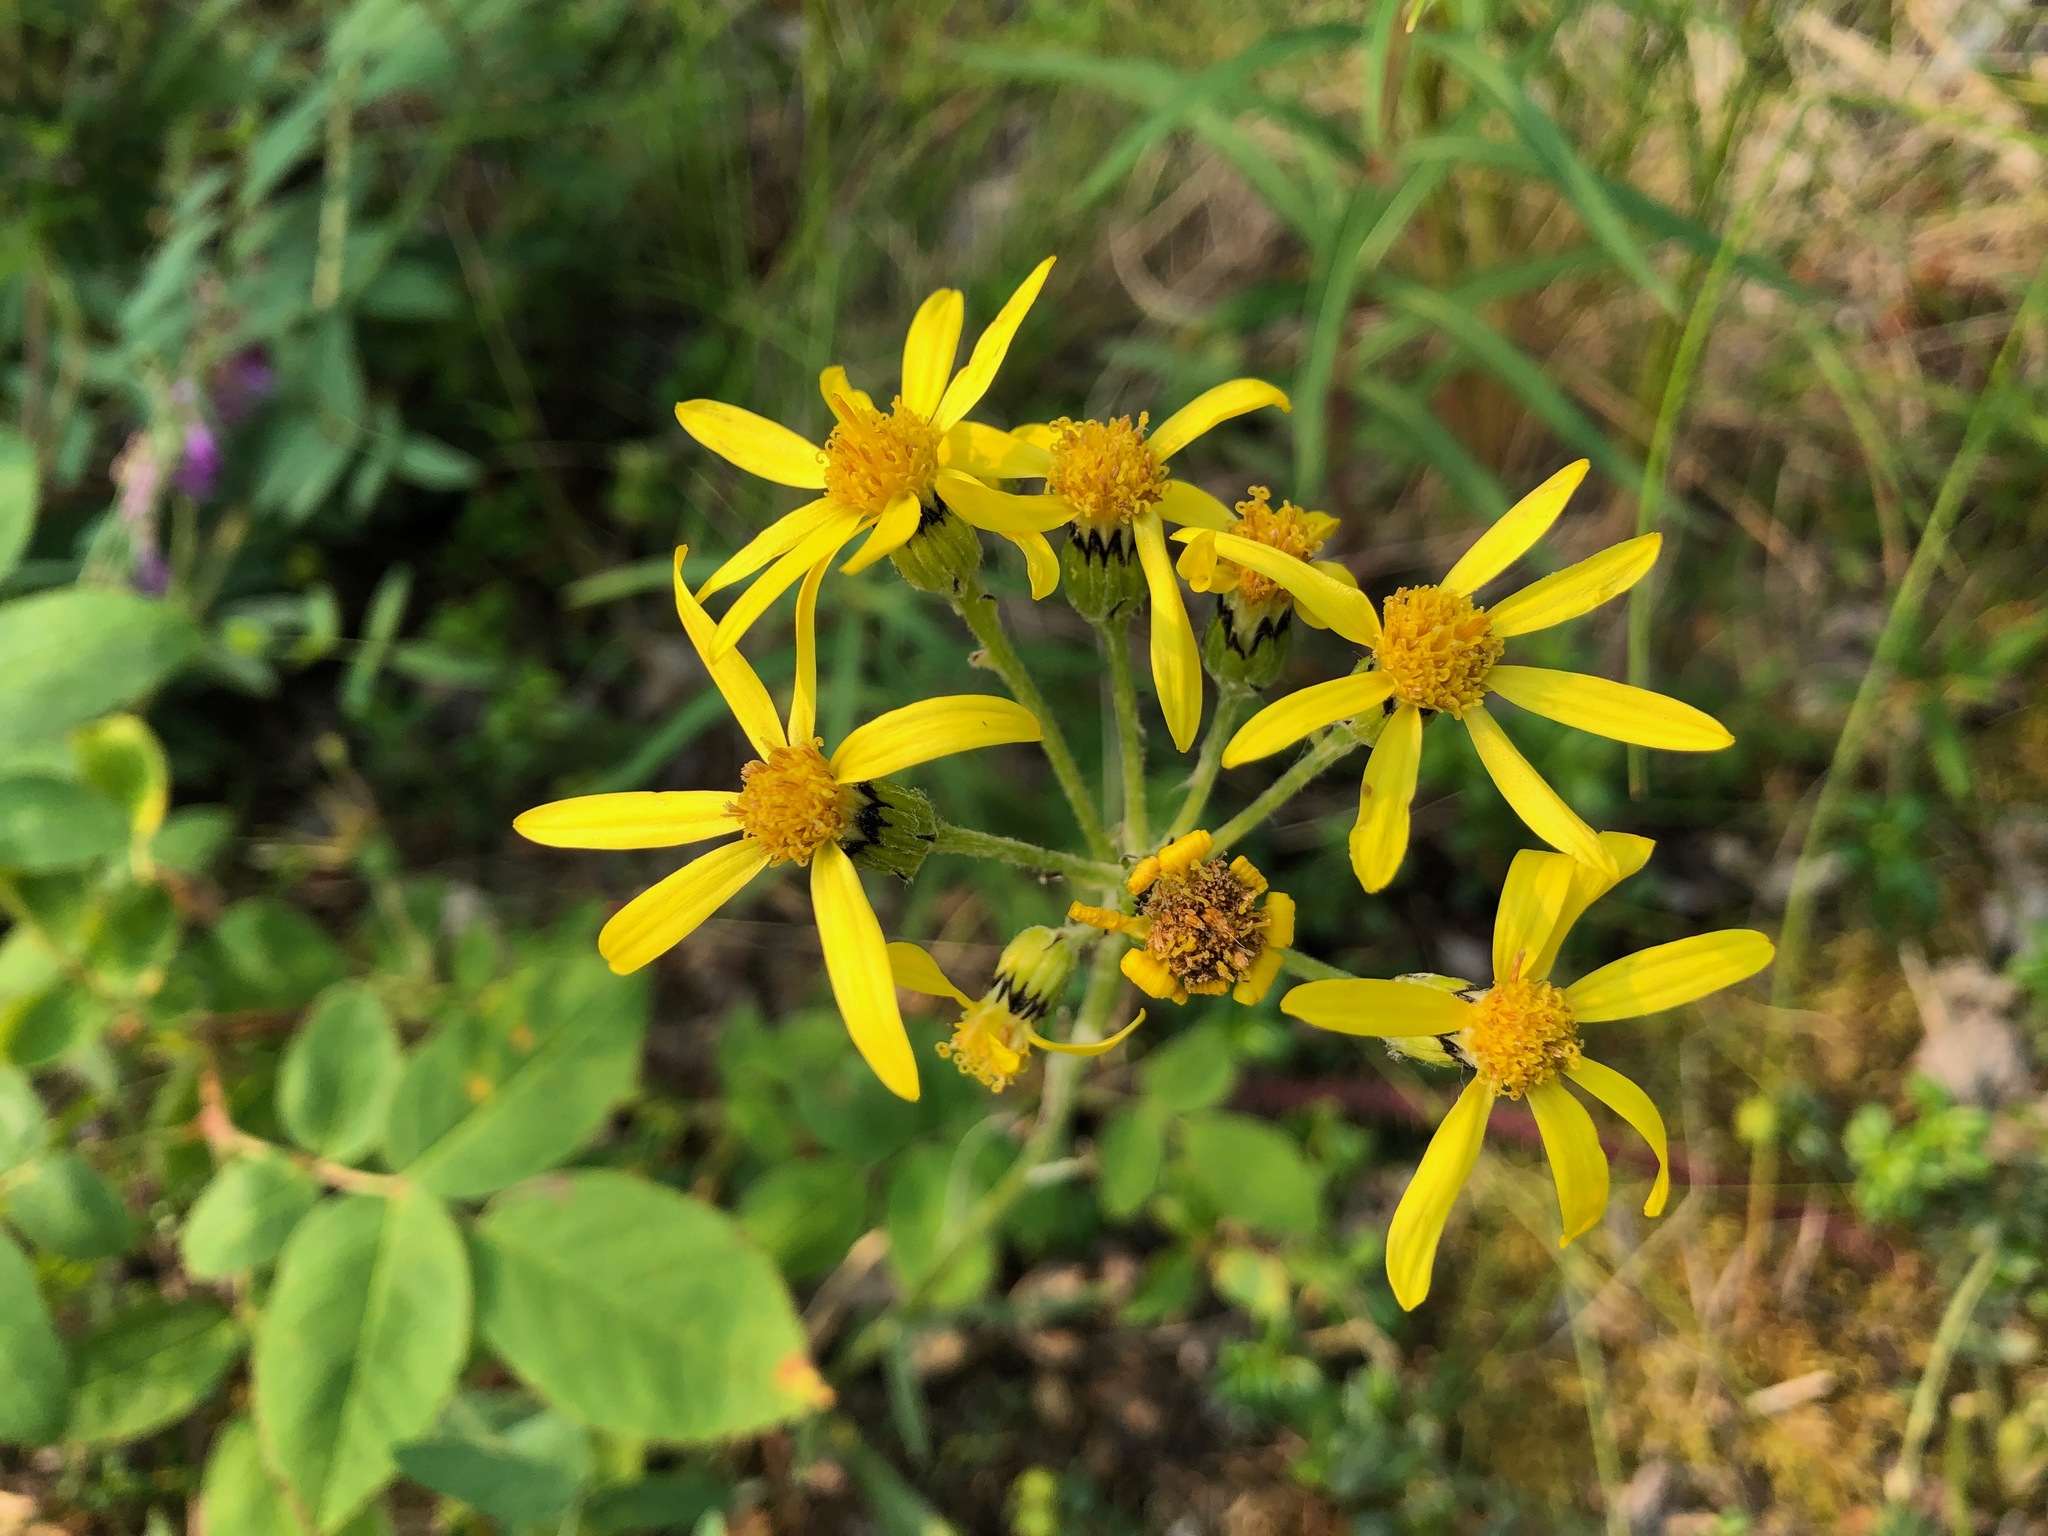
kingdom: Plantae
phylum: Tracheophyta
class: Magnoliopsida
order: Asterales
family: Asteraceae
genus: Senecio
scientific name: Senecio lugens
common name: Black-tip groundsel
